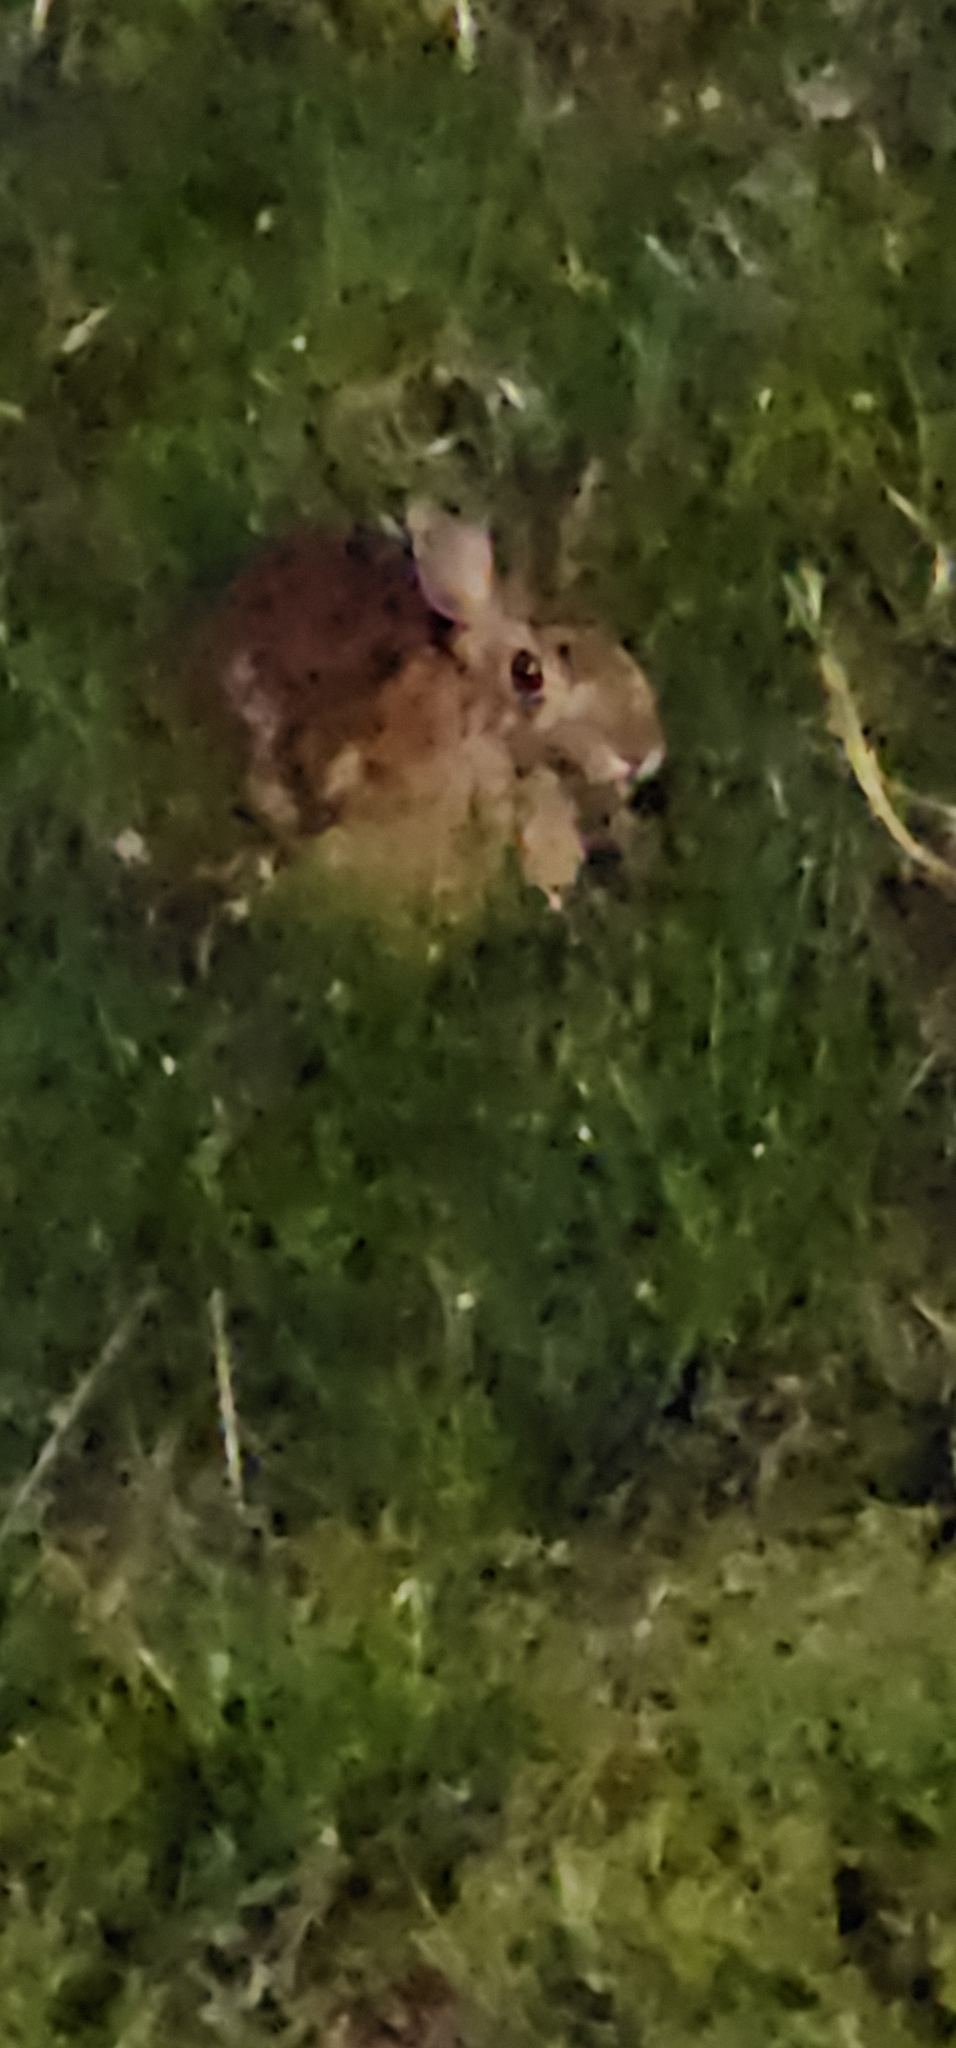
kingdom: Animalia
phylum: Chordata
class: Mammalia
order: Lagomorpha
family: Leporidae
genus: Sylvilagus
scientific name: Sylvilagus floridanus
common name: Eastern cottontail
